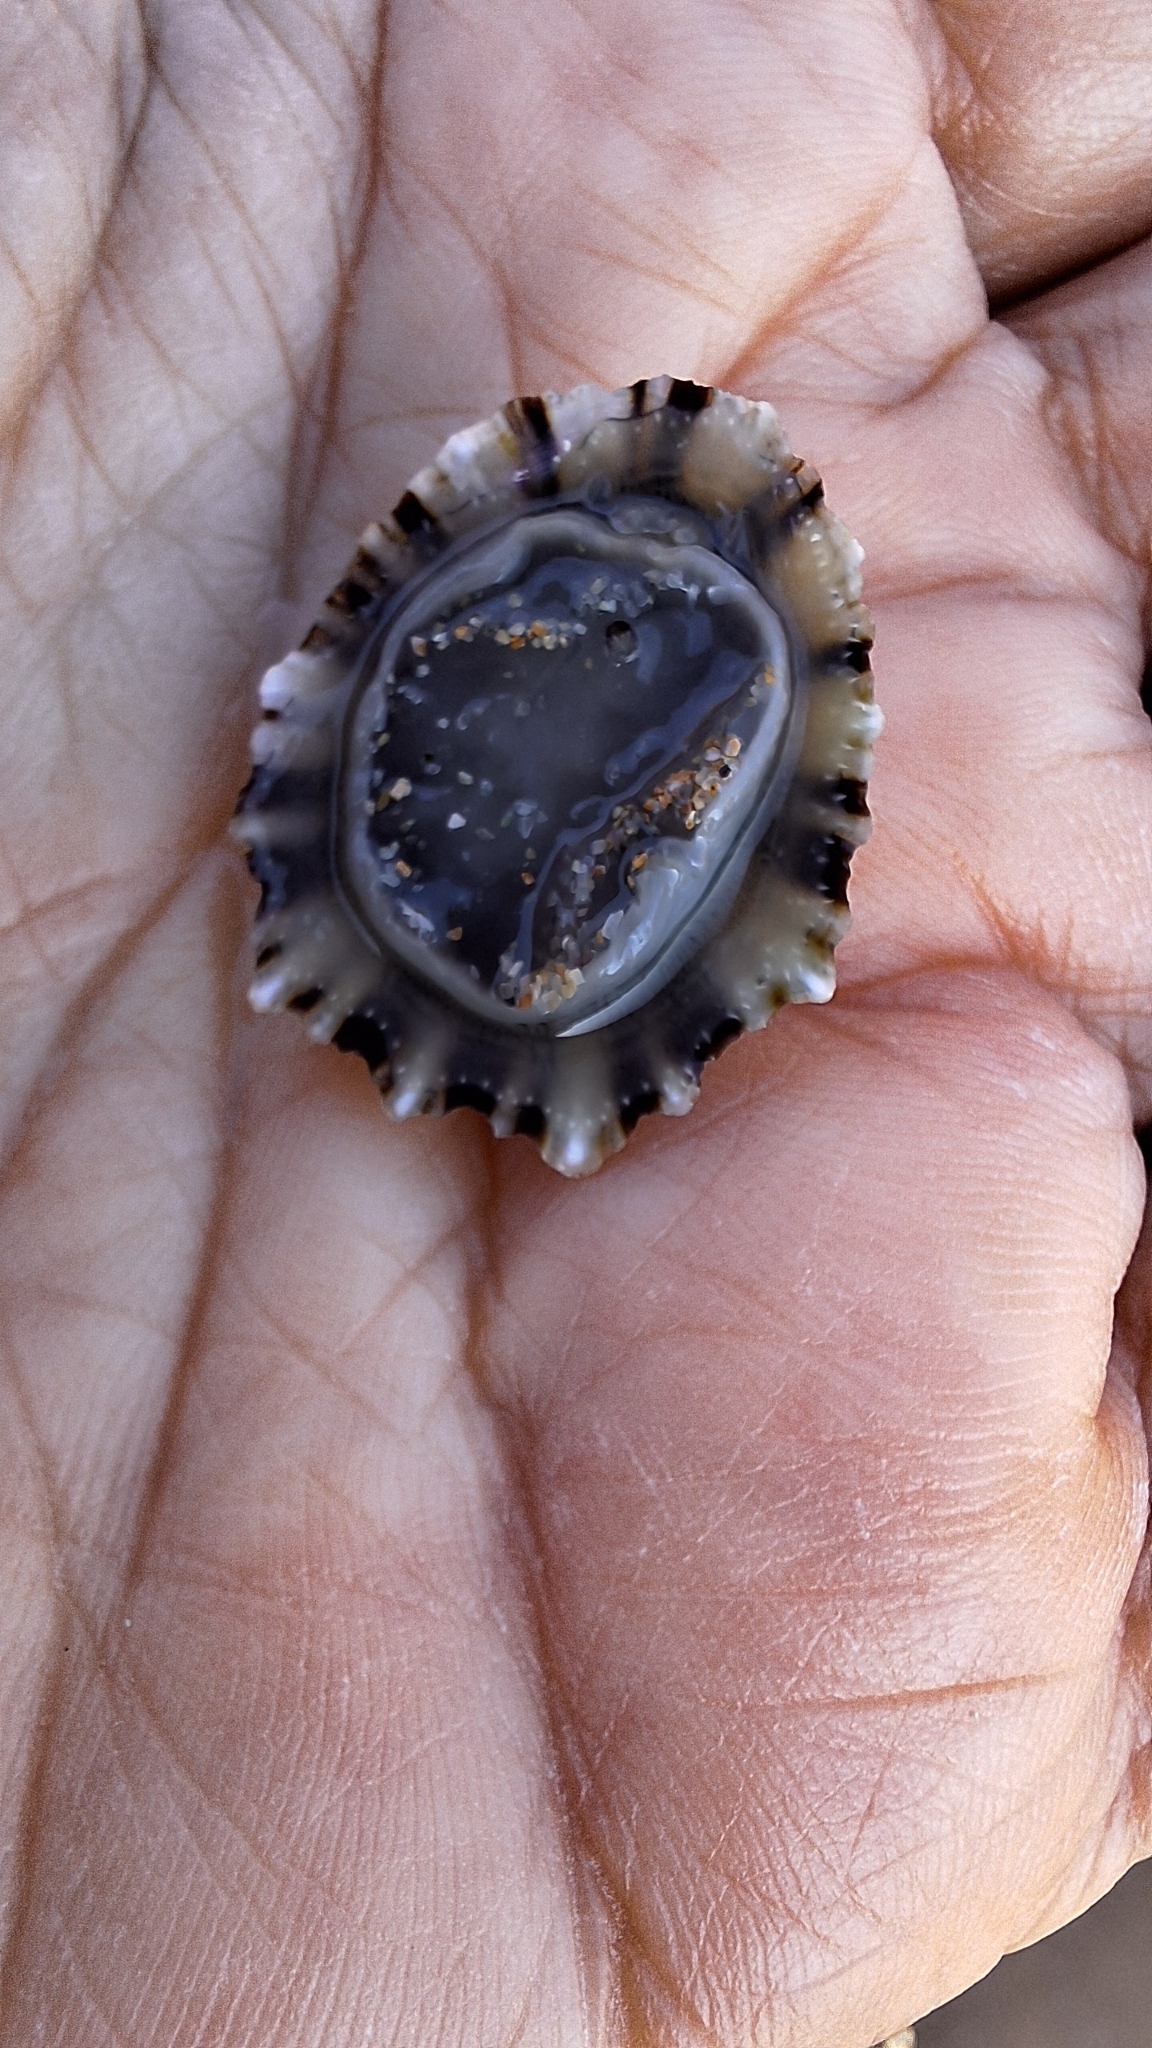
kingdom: Animalia
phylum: Mollusca
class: Gastropoda
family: Patellidae
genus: Patella
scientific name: Patella depressa
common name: Black-footed limpet
